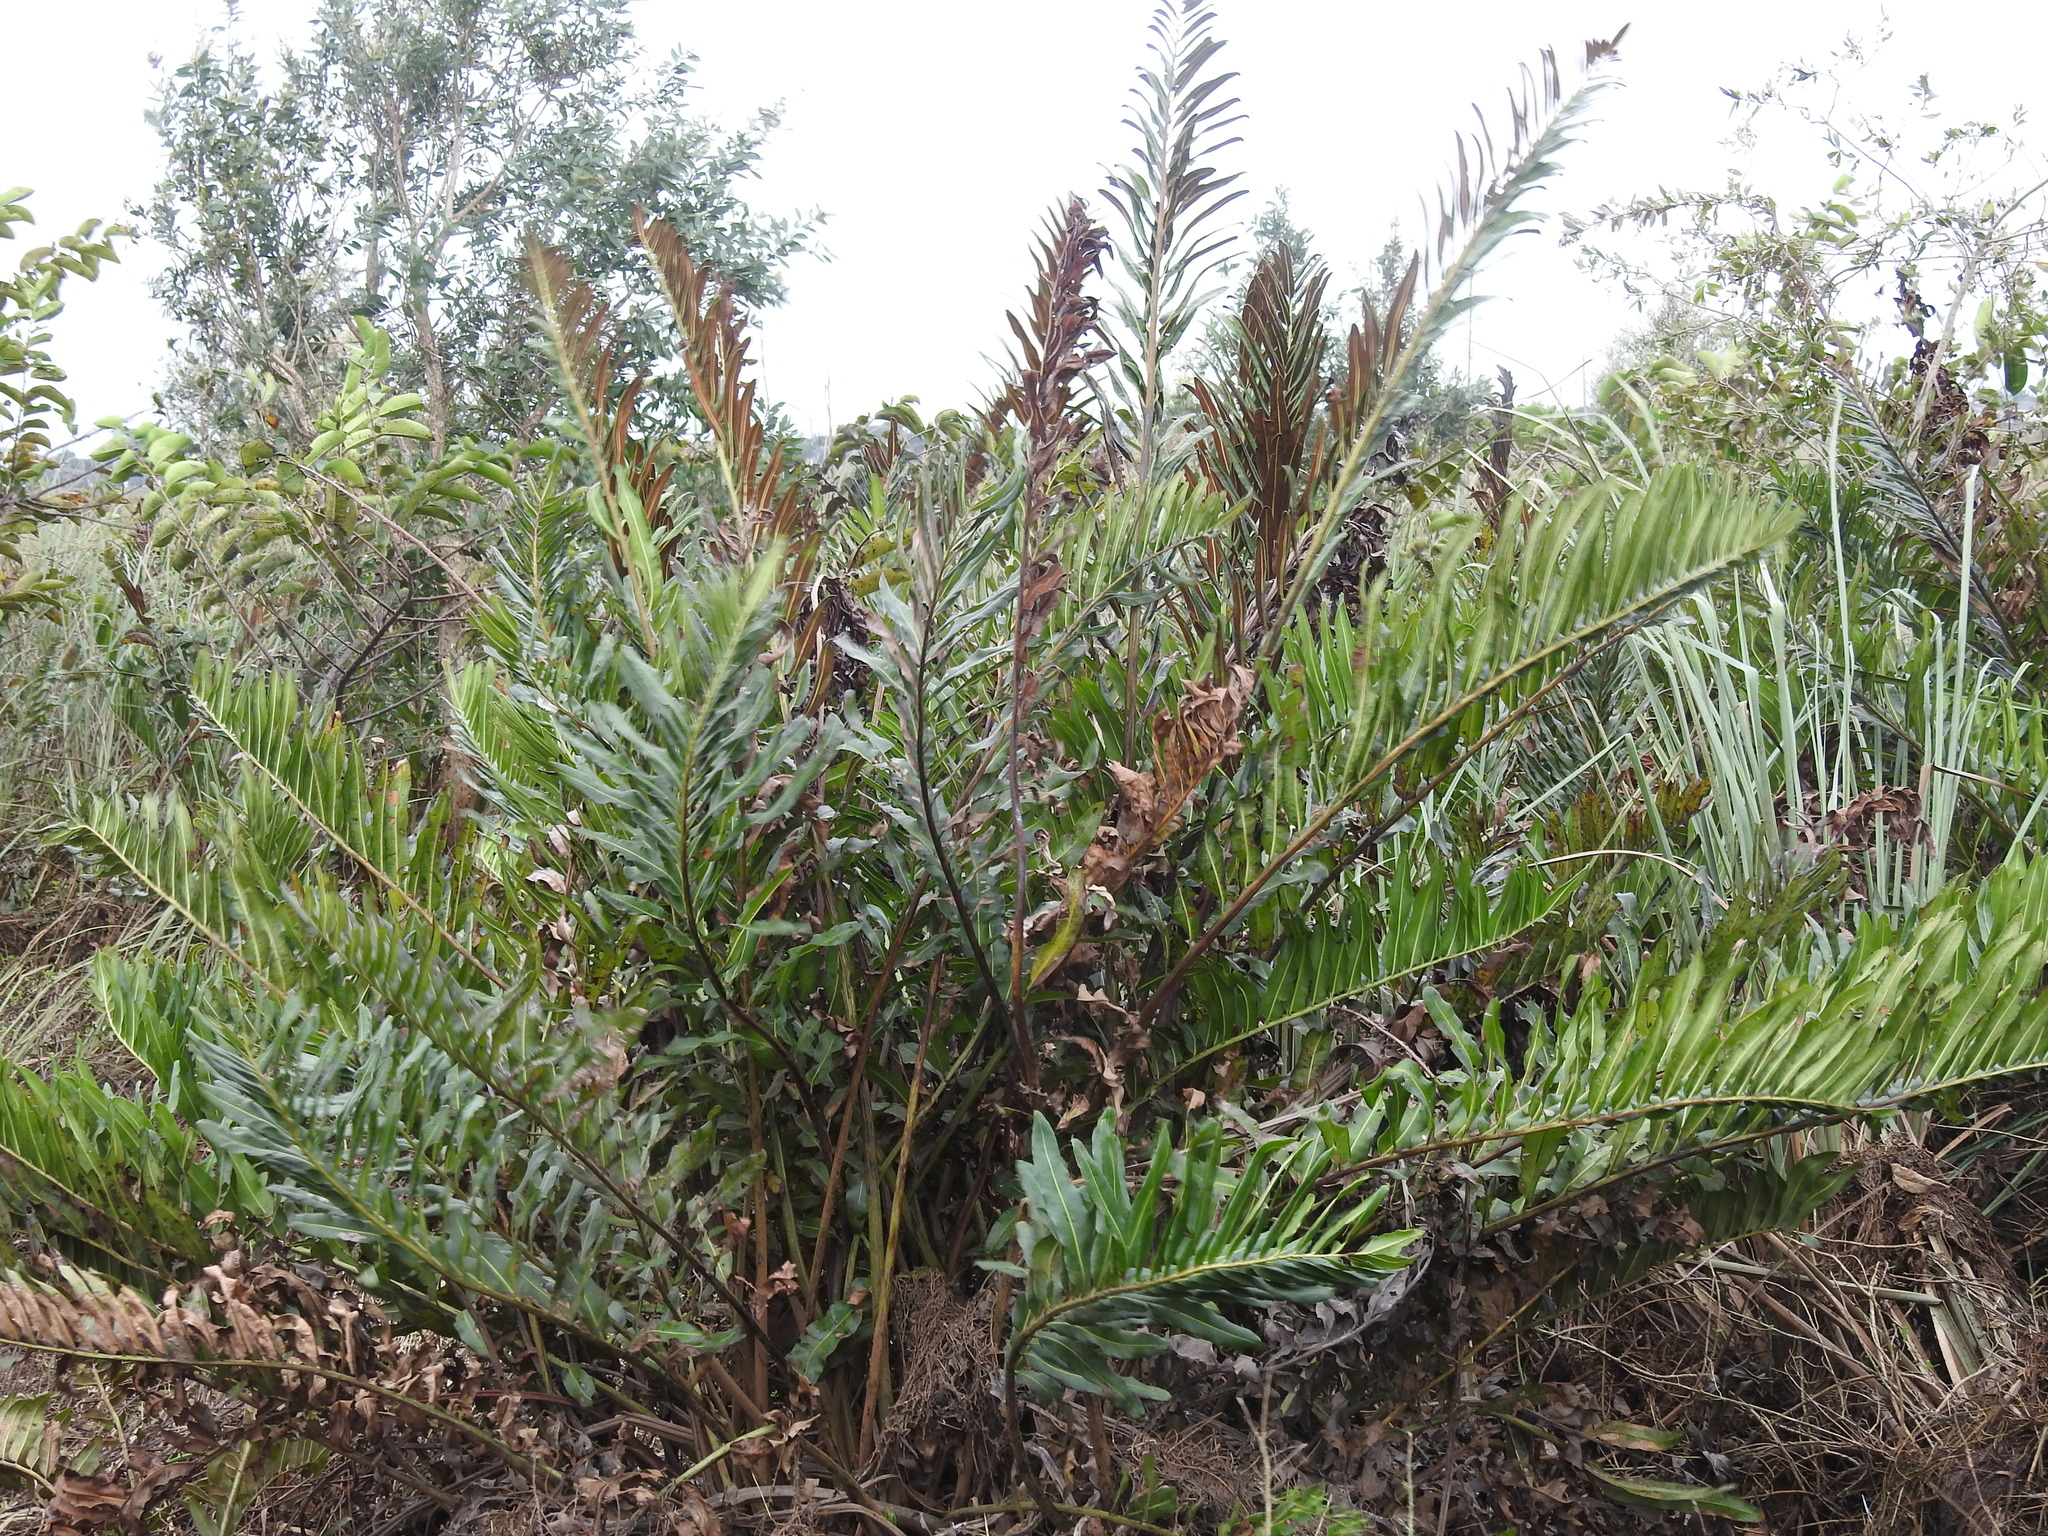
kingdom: Plantae
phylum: Tracheophyta
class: Polypodiopsida
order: Polypodiales
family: Pteridaceae
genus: Acrostichum
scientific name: Acrostichum danaeifolium
